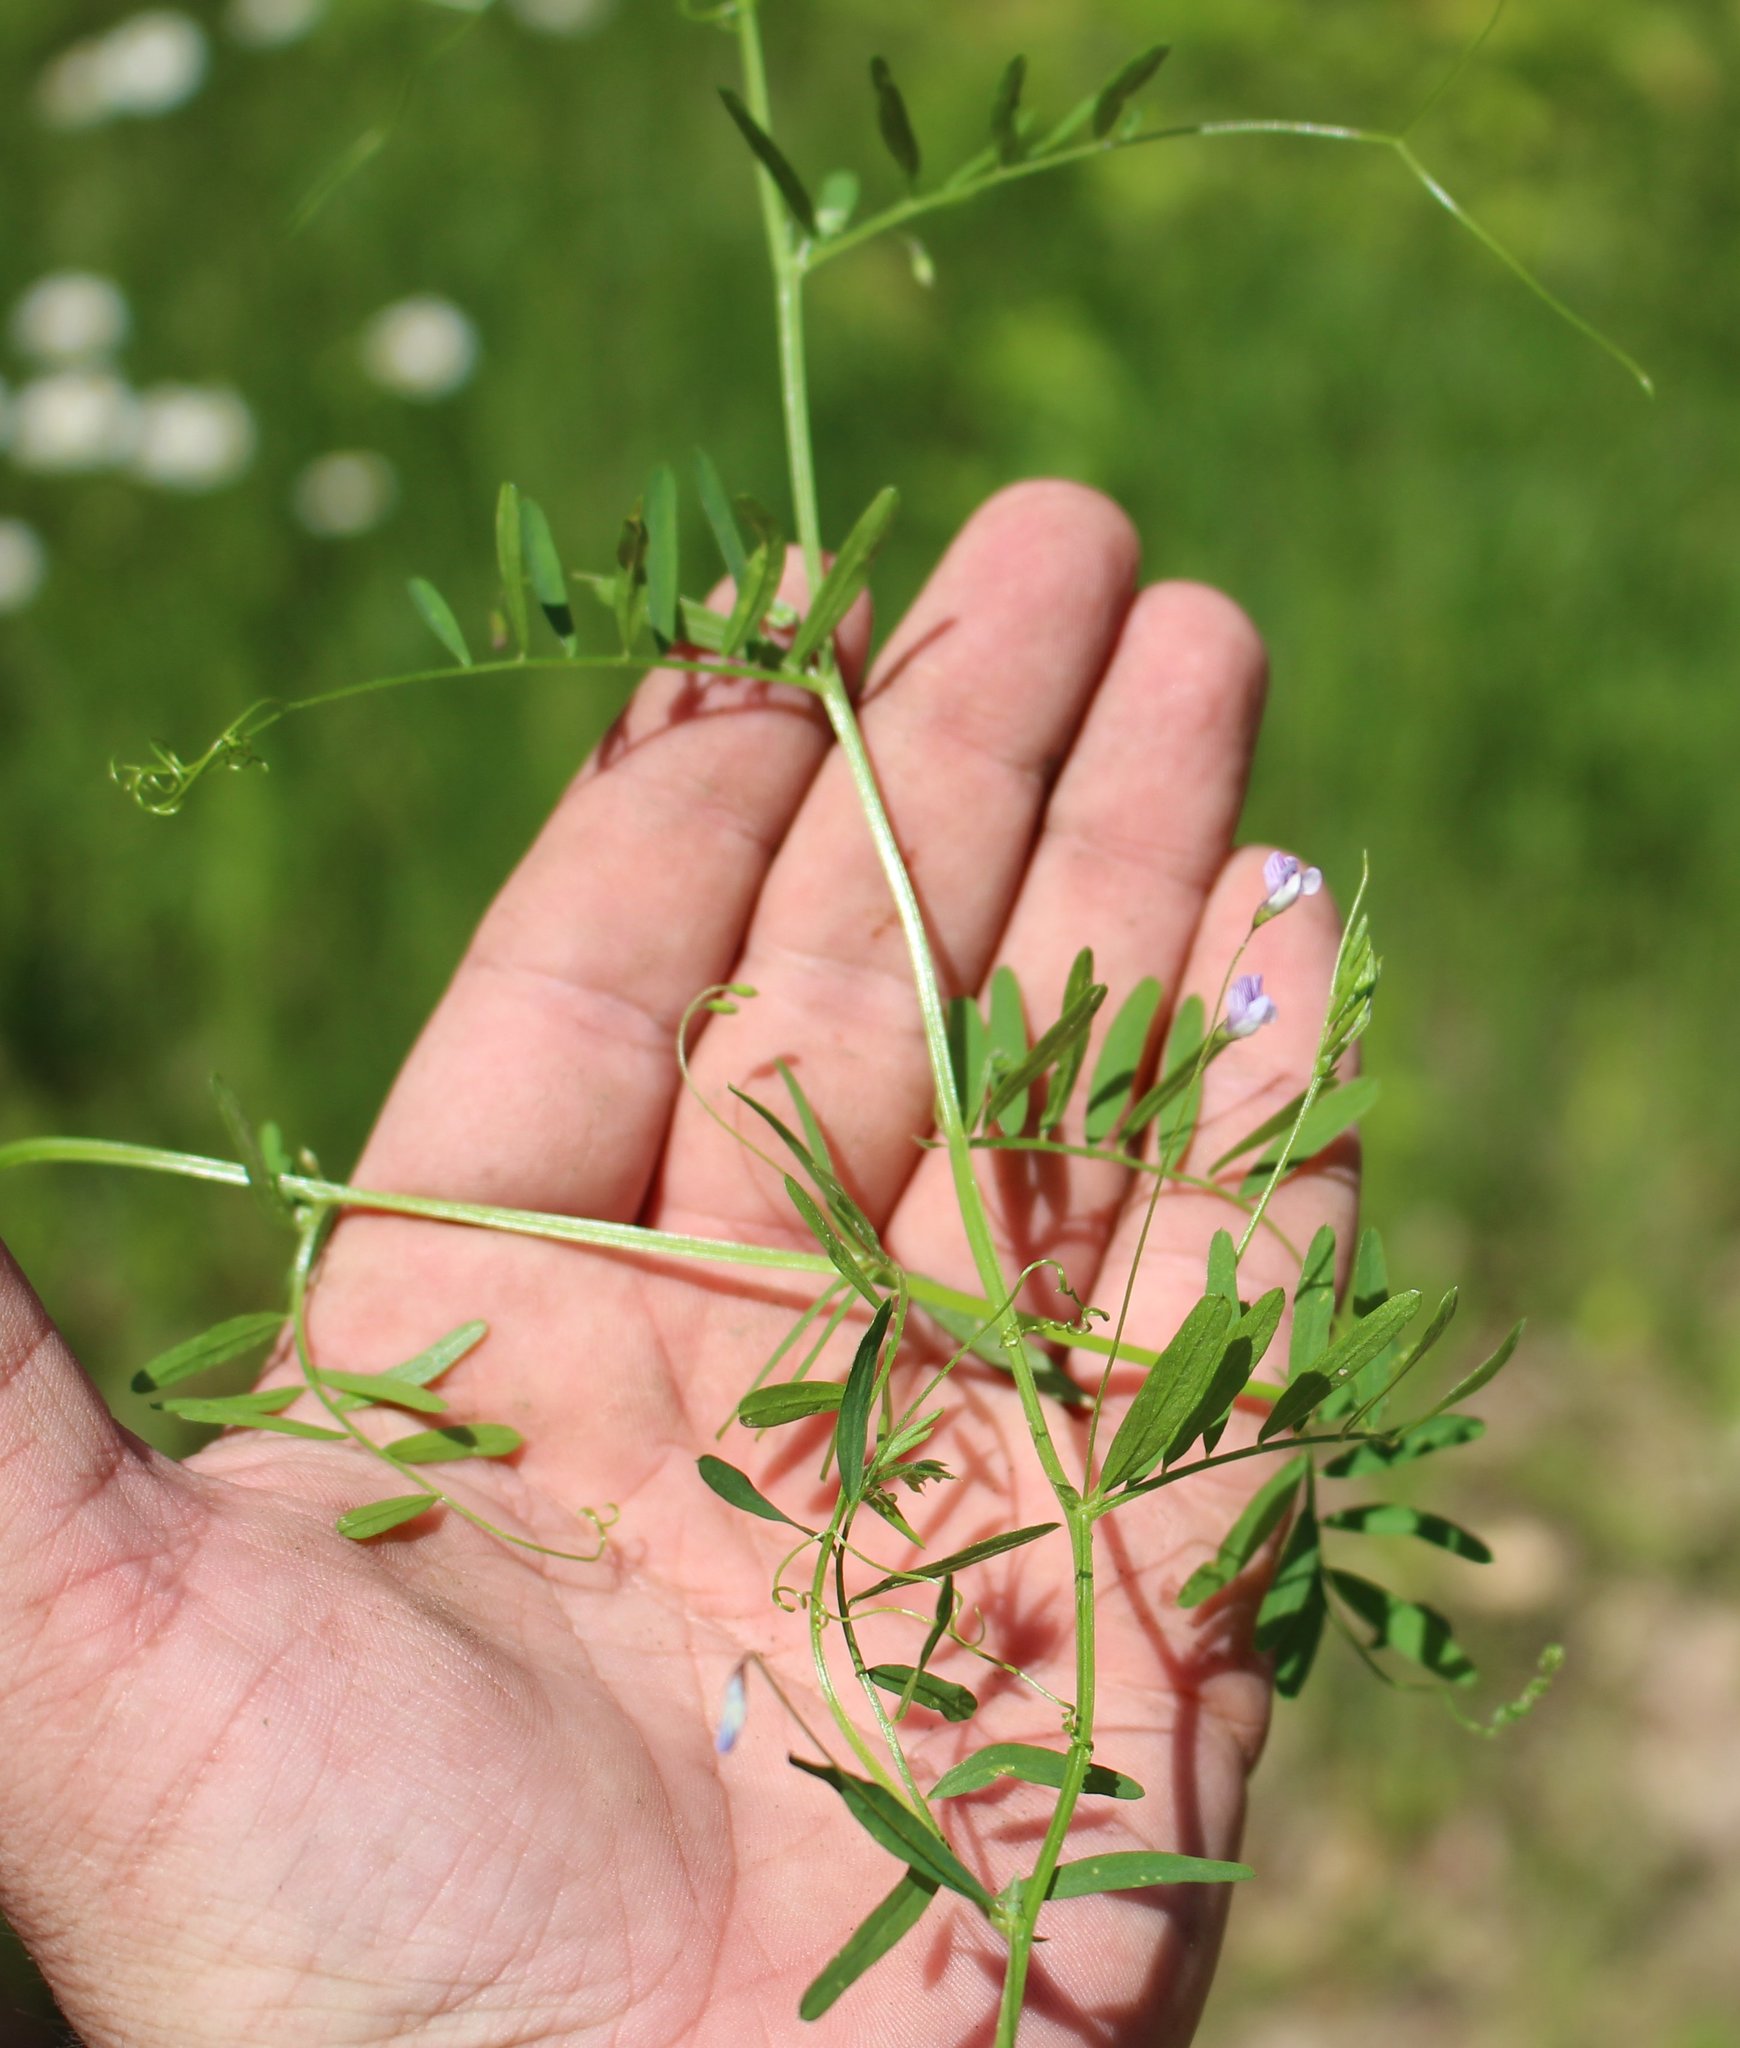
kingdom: Plantae
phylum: Tracheophyta
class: Magnoliopsida
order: Fabales
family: Fabaceae
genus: Vicia
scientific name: Vicia tetrasperma
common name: Smooth tare
